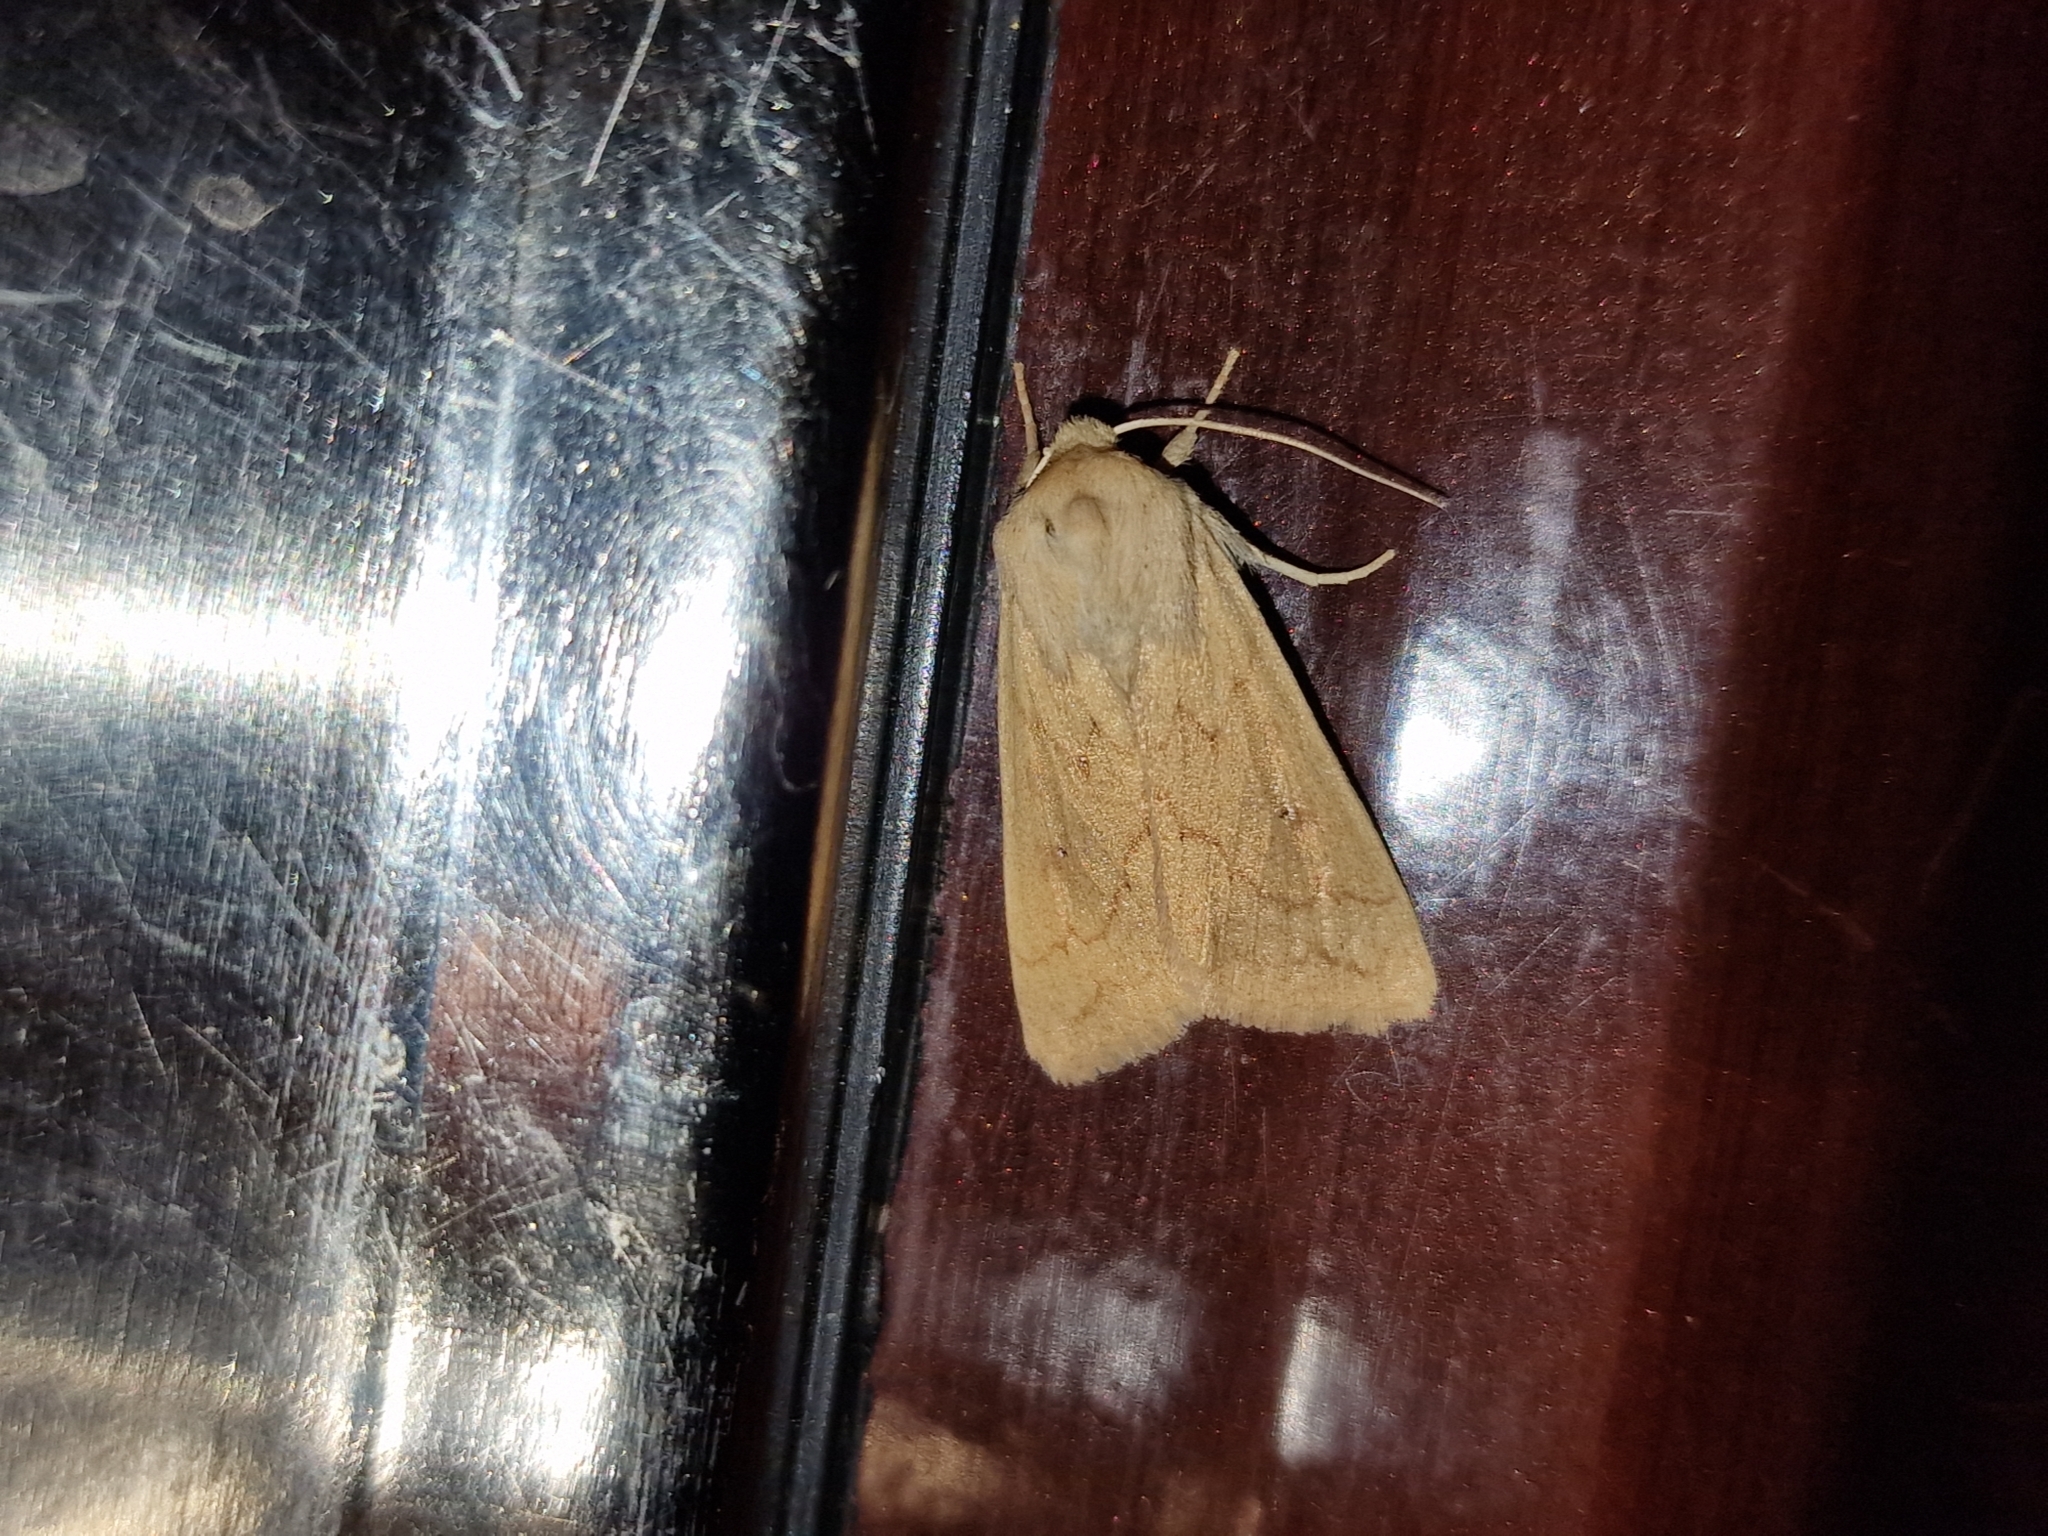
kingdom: Animalia
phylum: Arthropoda
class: Insecta
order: Lepidoptera
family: Noctuidae
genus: Mythimna
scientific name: Mythimna vitellina
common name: Delicate
